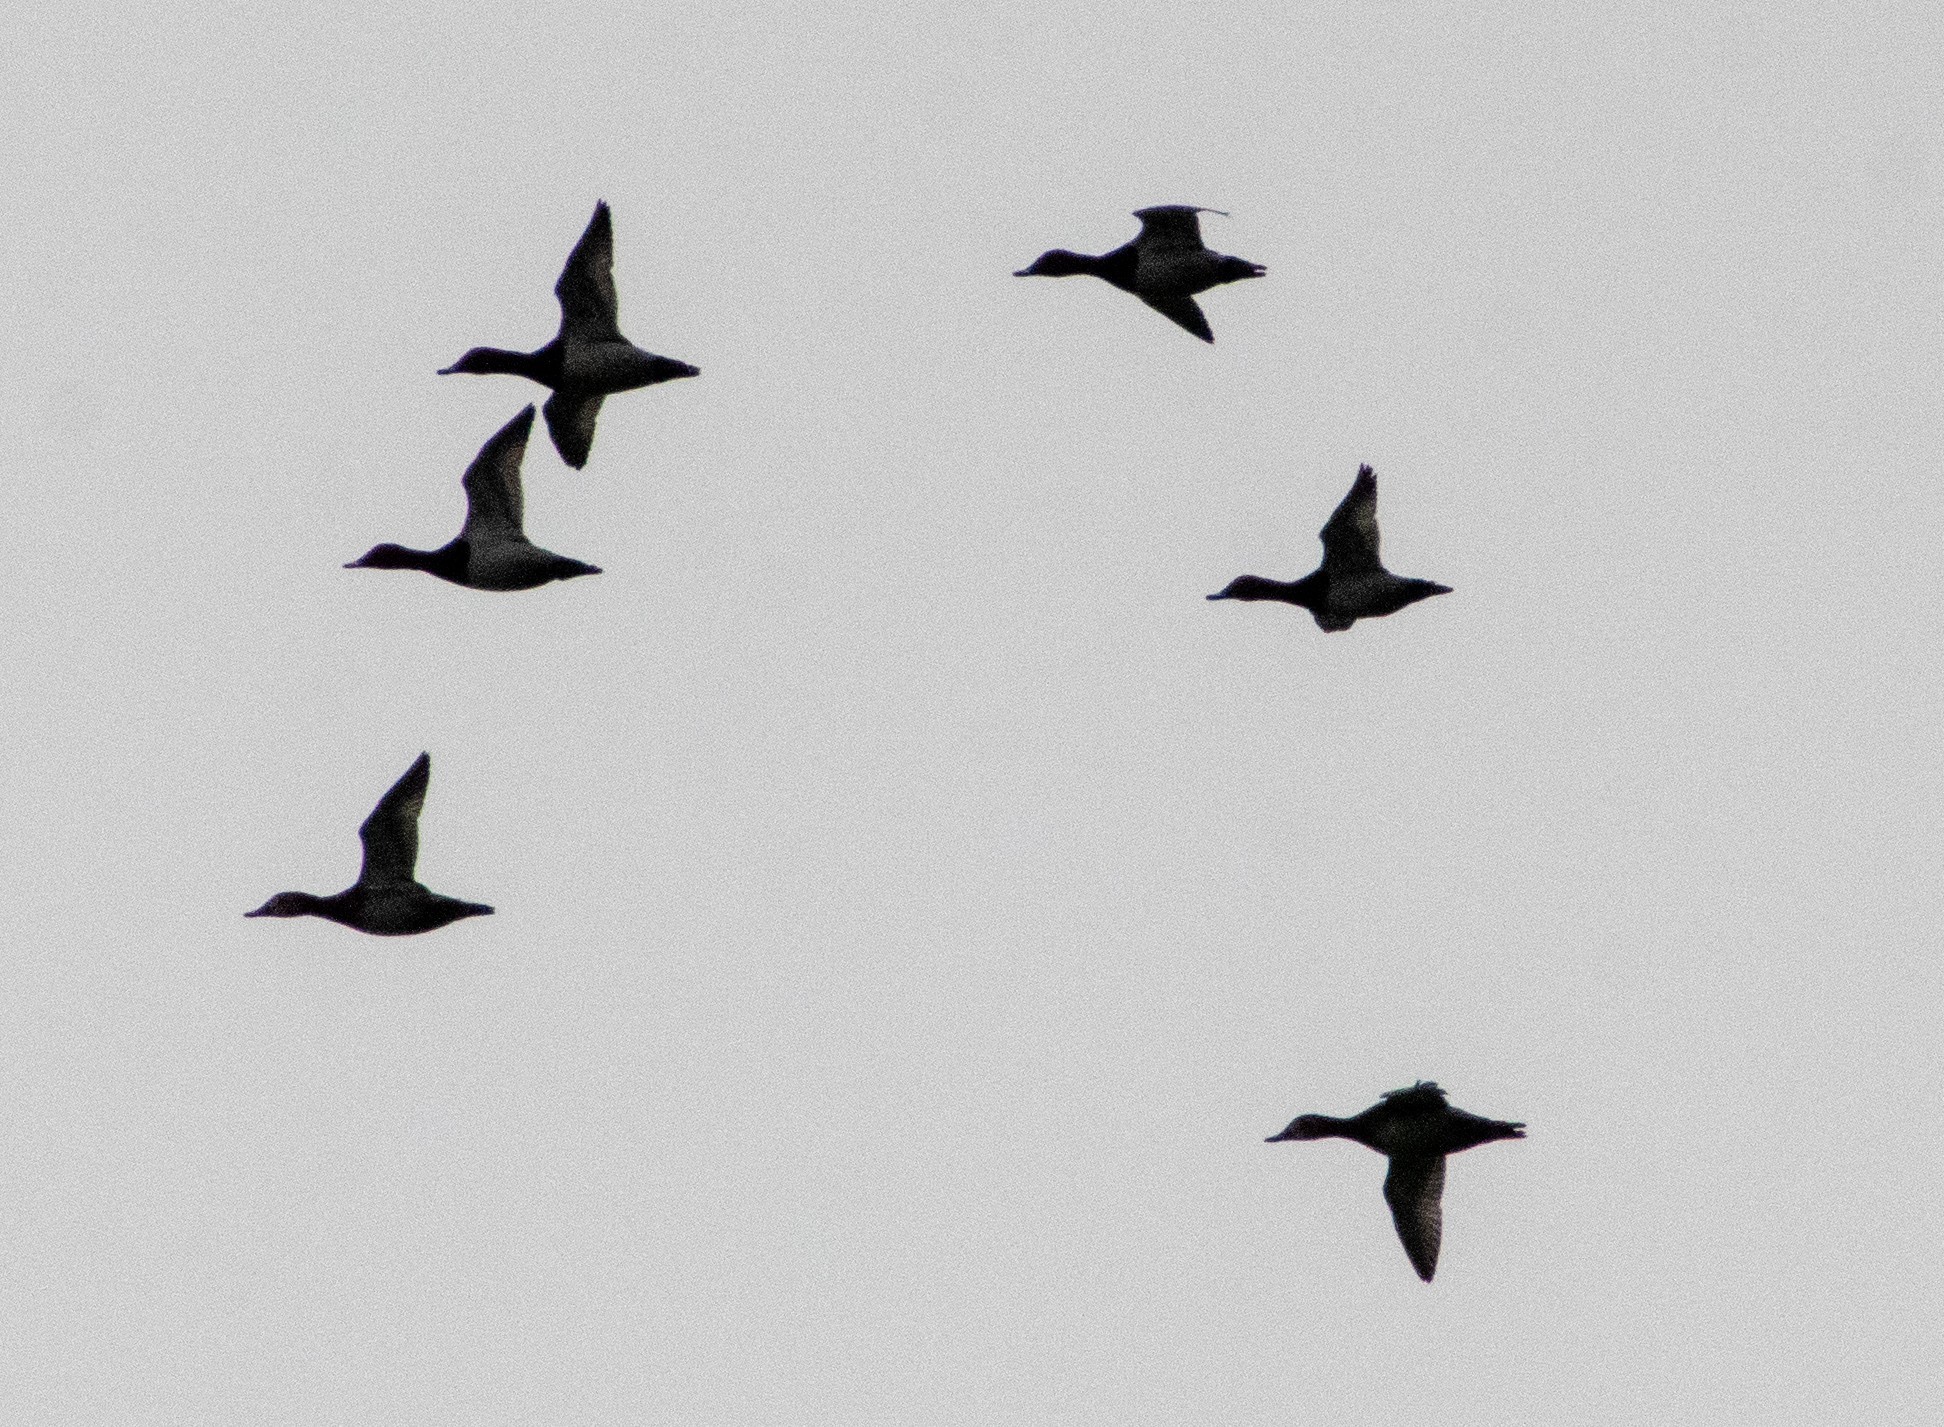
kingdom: Animalia
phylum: Chordata
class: Aves
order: Anseriformes
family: Anatidae
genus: Aythya
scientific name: Aythya ferina
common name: Common pochard
